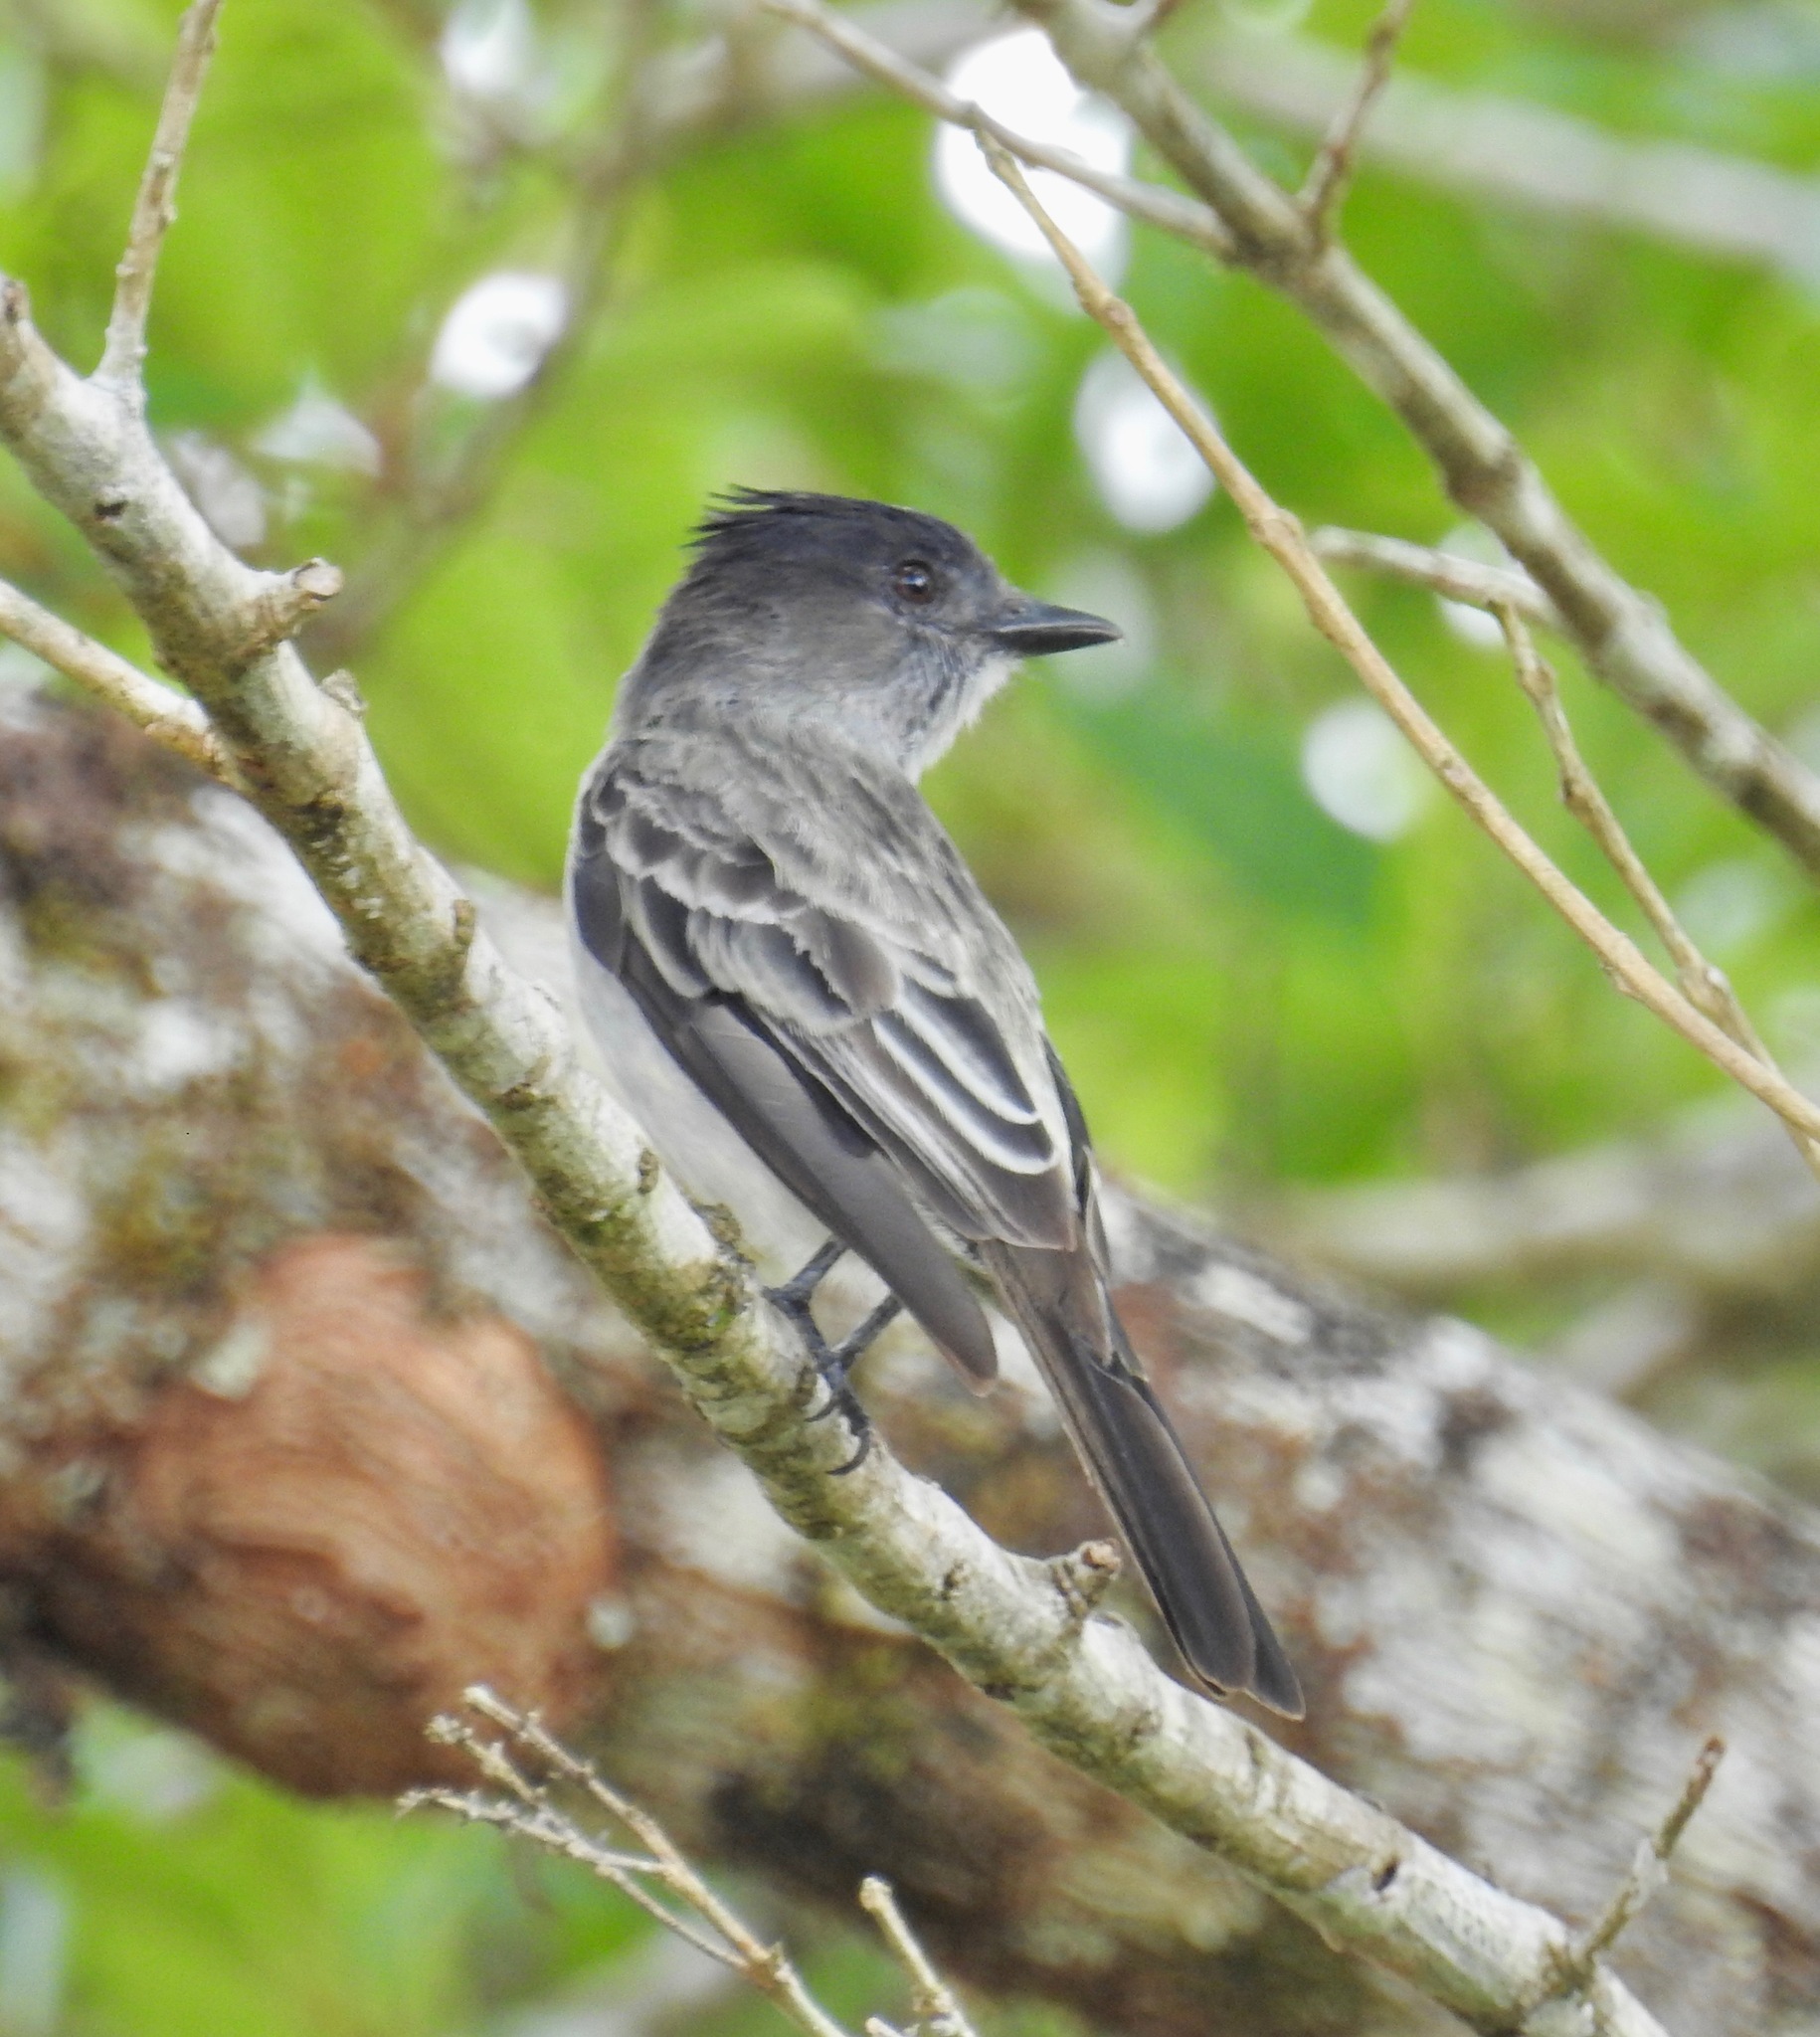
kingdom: Animalia
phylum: Chordata
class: Aves
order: Passeriformes
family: Tyrannidae
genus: Sirystes
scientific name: Sirystes sibilator
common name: Sirystes
